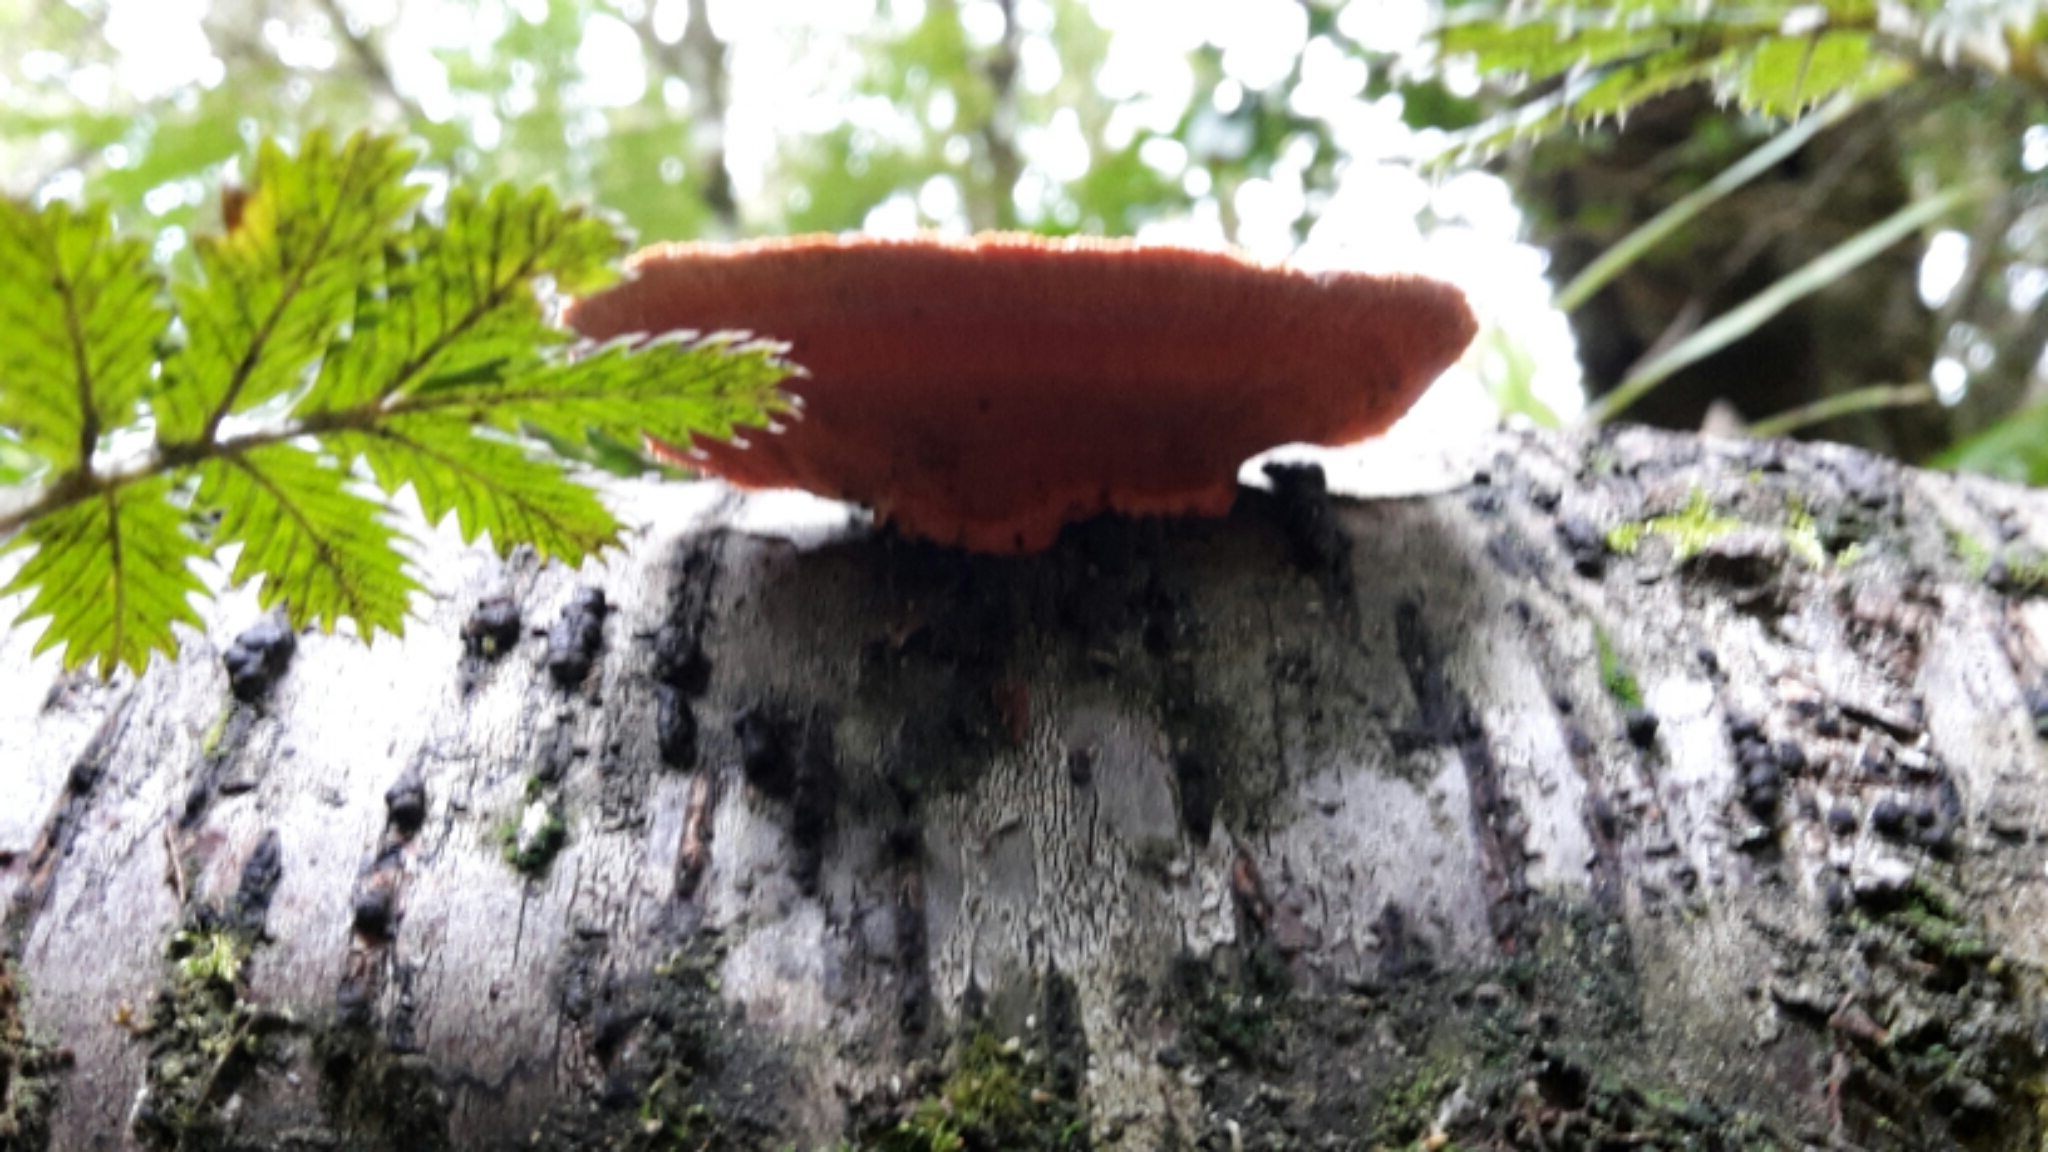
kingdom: Fungi
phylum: Basidiomycota
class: Agaricomycetes
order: Polyporales
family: Polyporaceae
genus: Trametes
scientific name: Trametes coccinea
